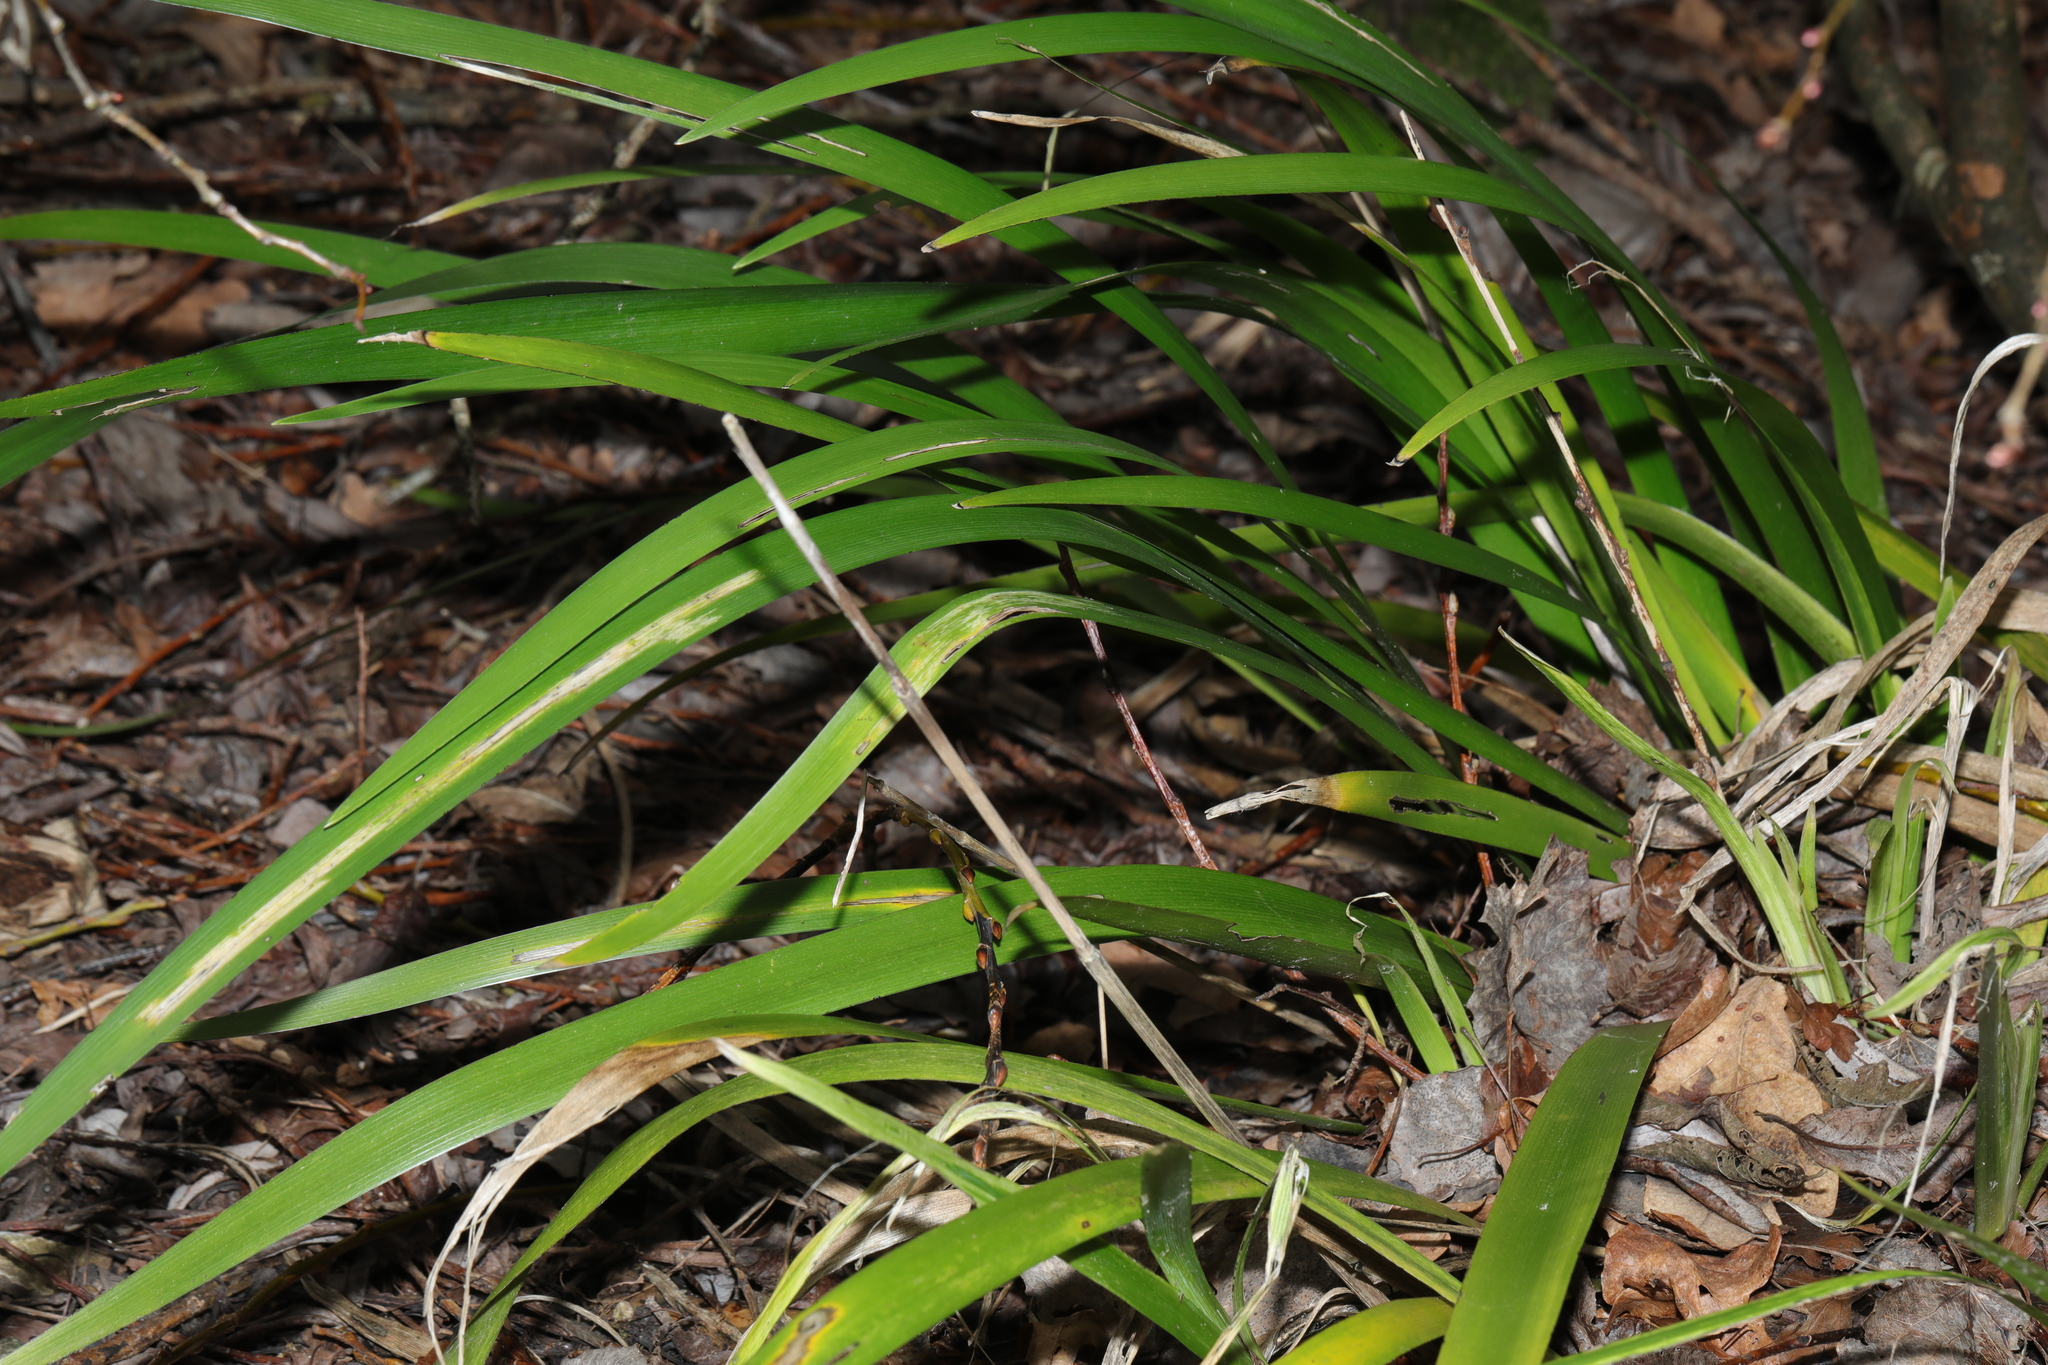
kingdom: Plantae
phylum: Tracheophyta
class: Liliopsida
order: Asparagales
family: Iridaceae
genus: Iris
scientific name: Iris foetidissima
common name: Stinking iris
